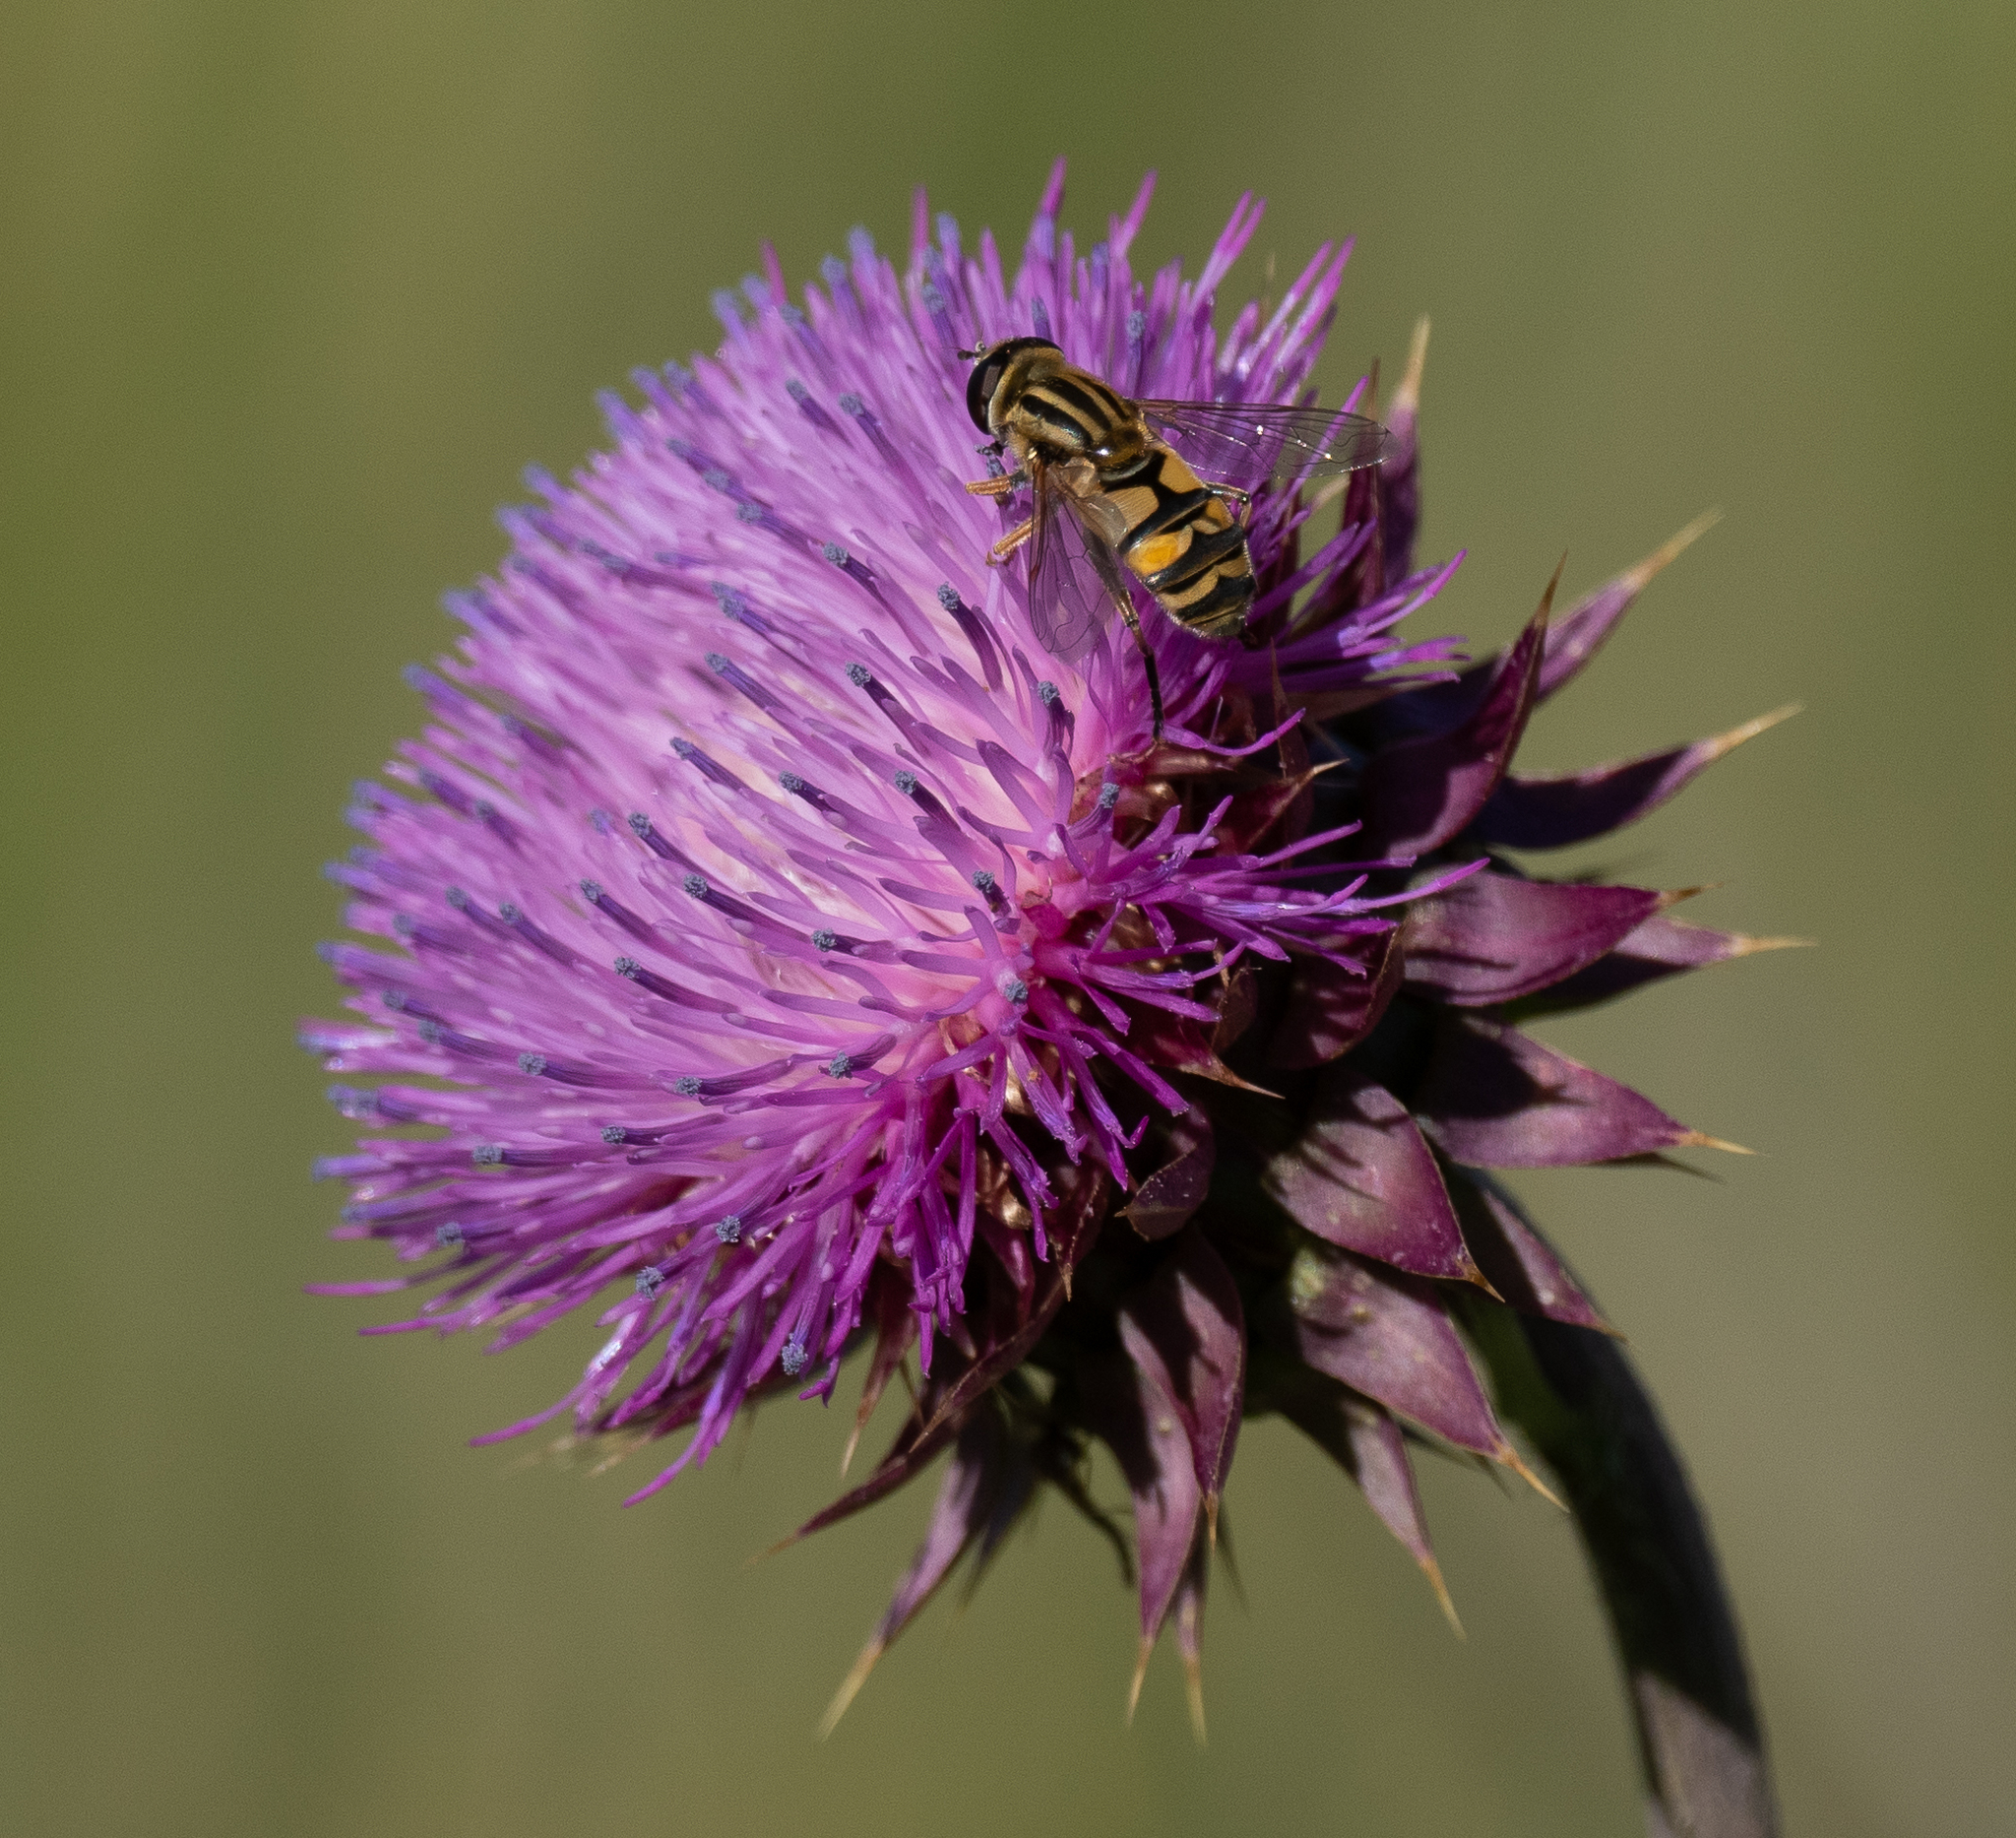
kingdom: Animalia
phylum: Arthropoda
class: Insecta
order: Diptera
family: Syrphidae
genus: Helophilus
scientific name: Helophilus latifrons
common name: Broad-headed marsh fly
